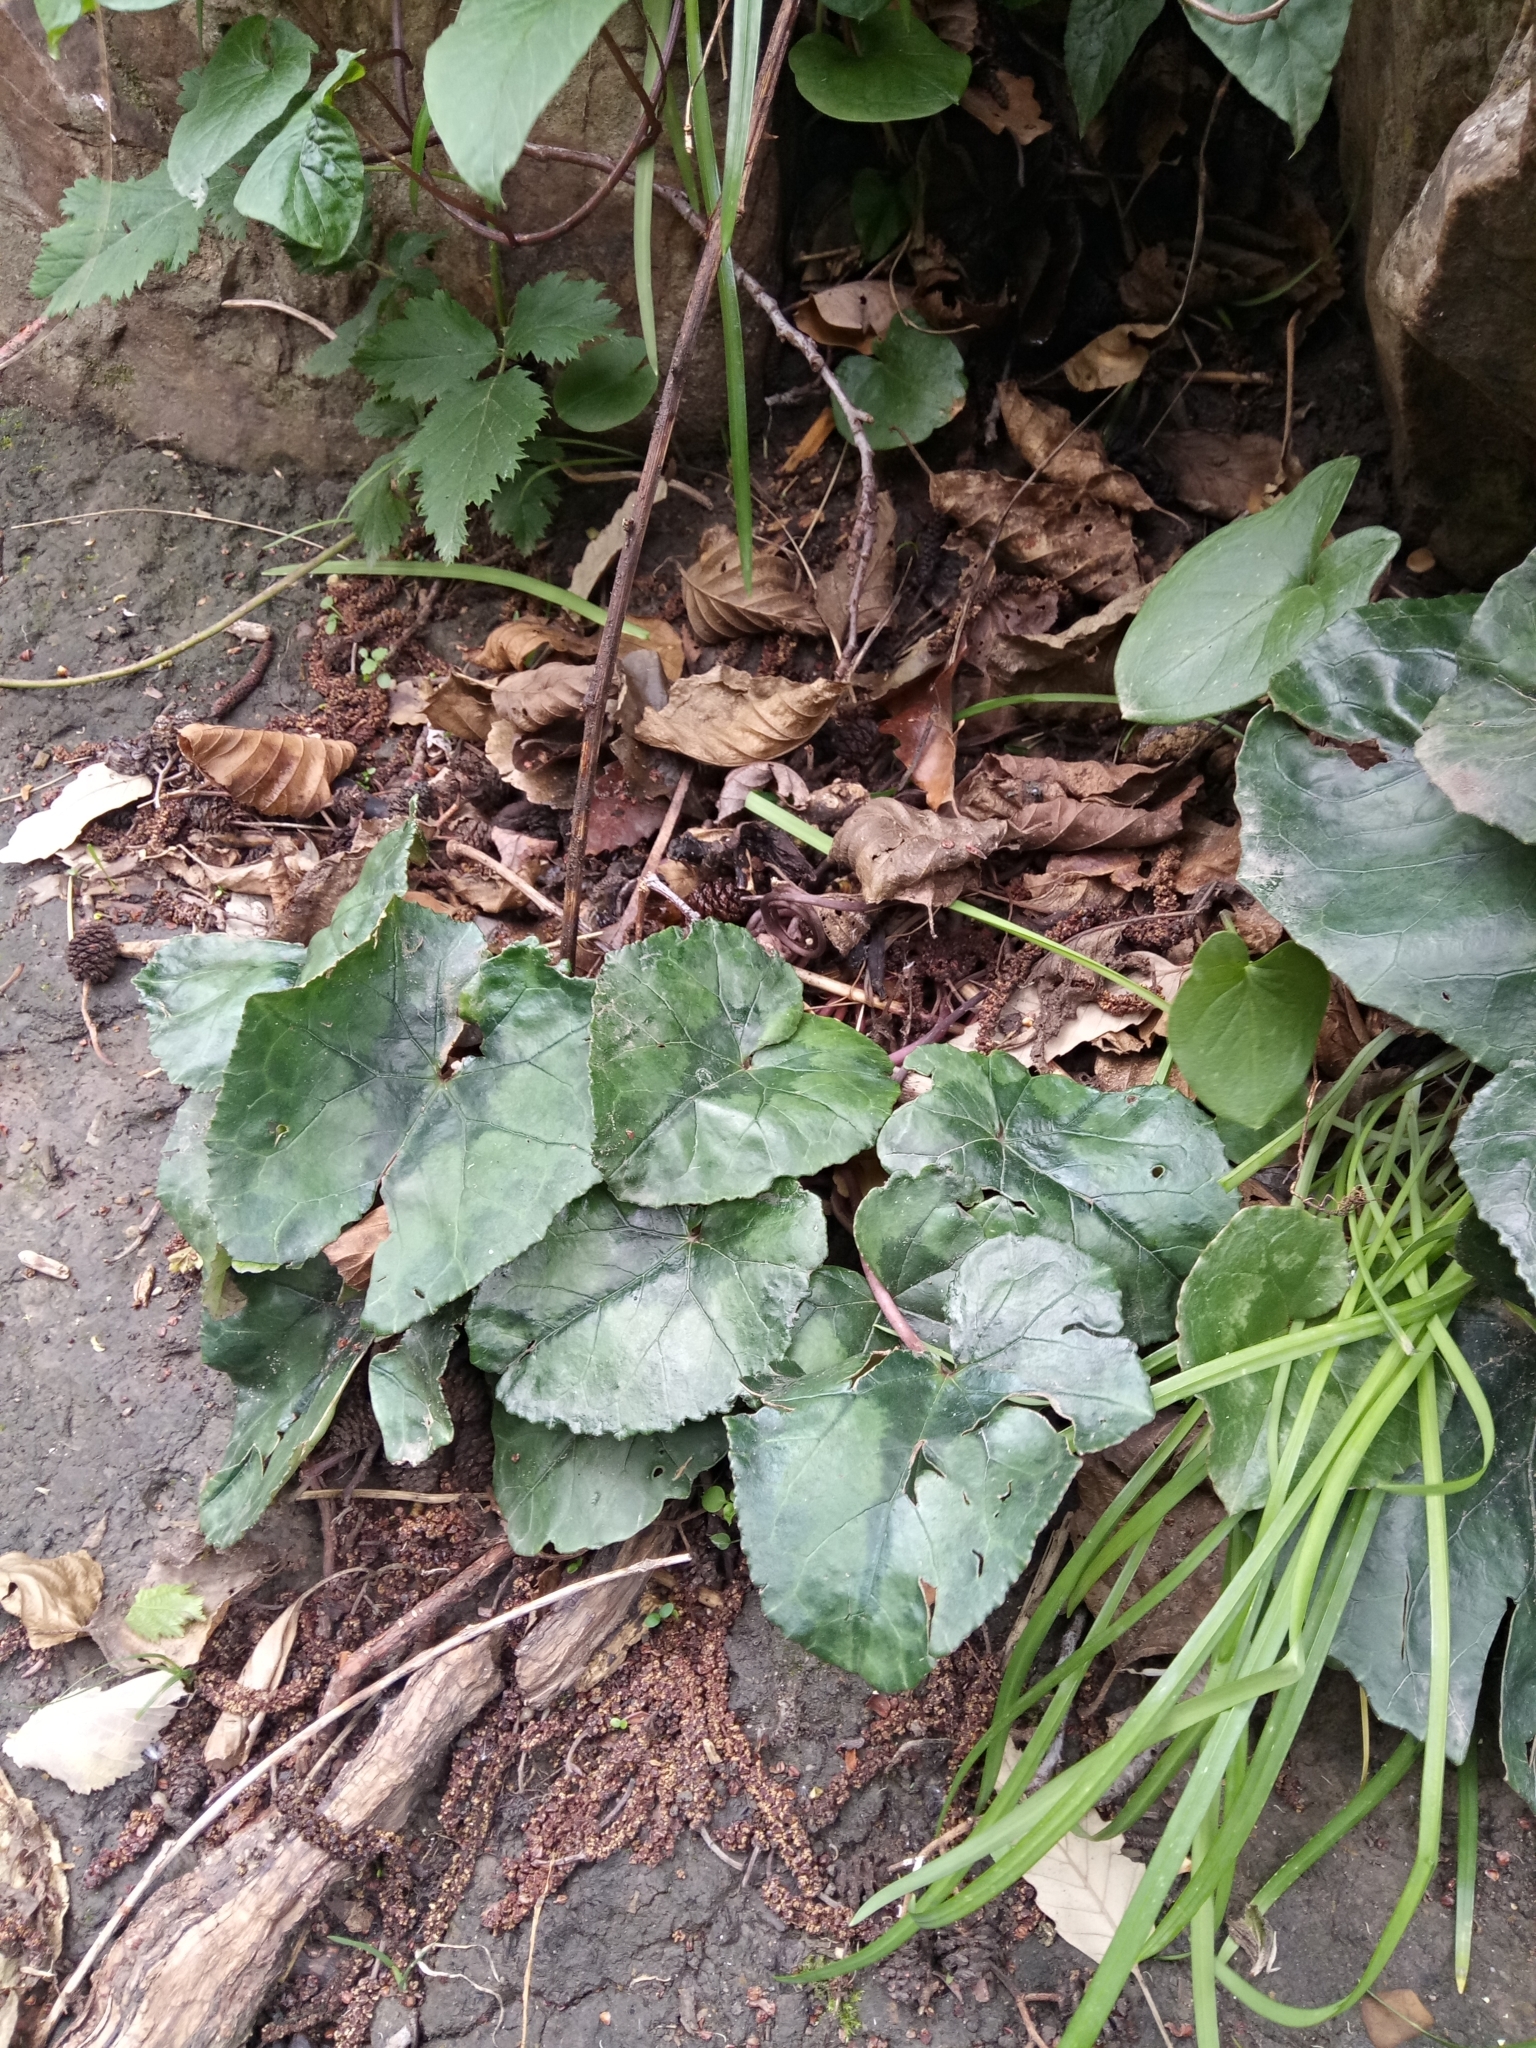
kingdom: Plantae
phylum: Tracheophyta
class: Magnoliopsida
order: Ericales
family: Primulaceae
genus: Cyclamen
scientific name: Cyclamen africanum
